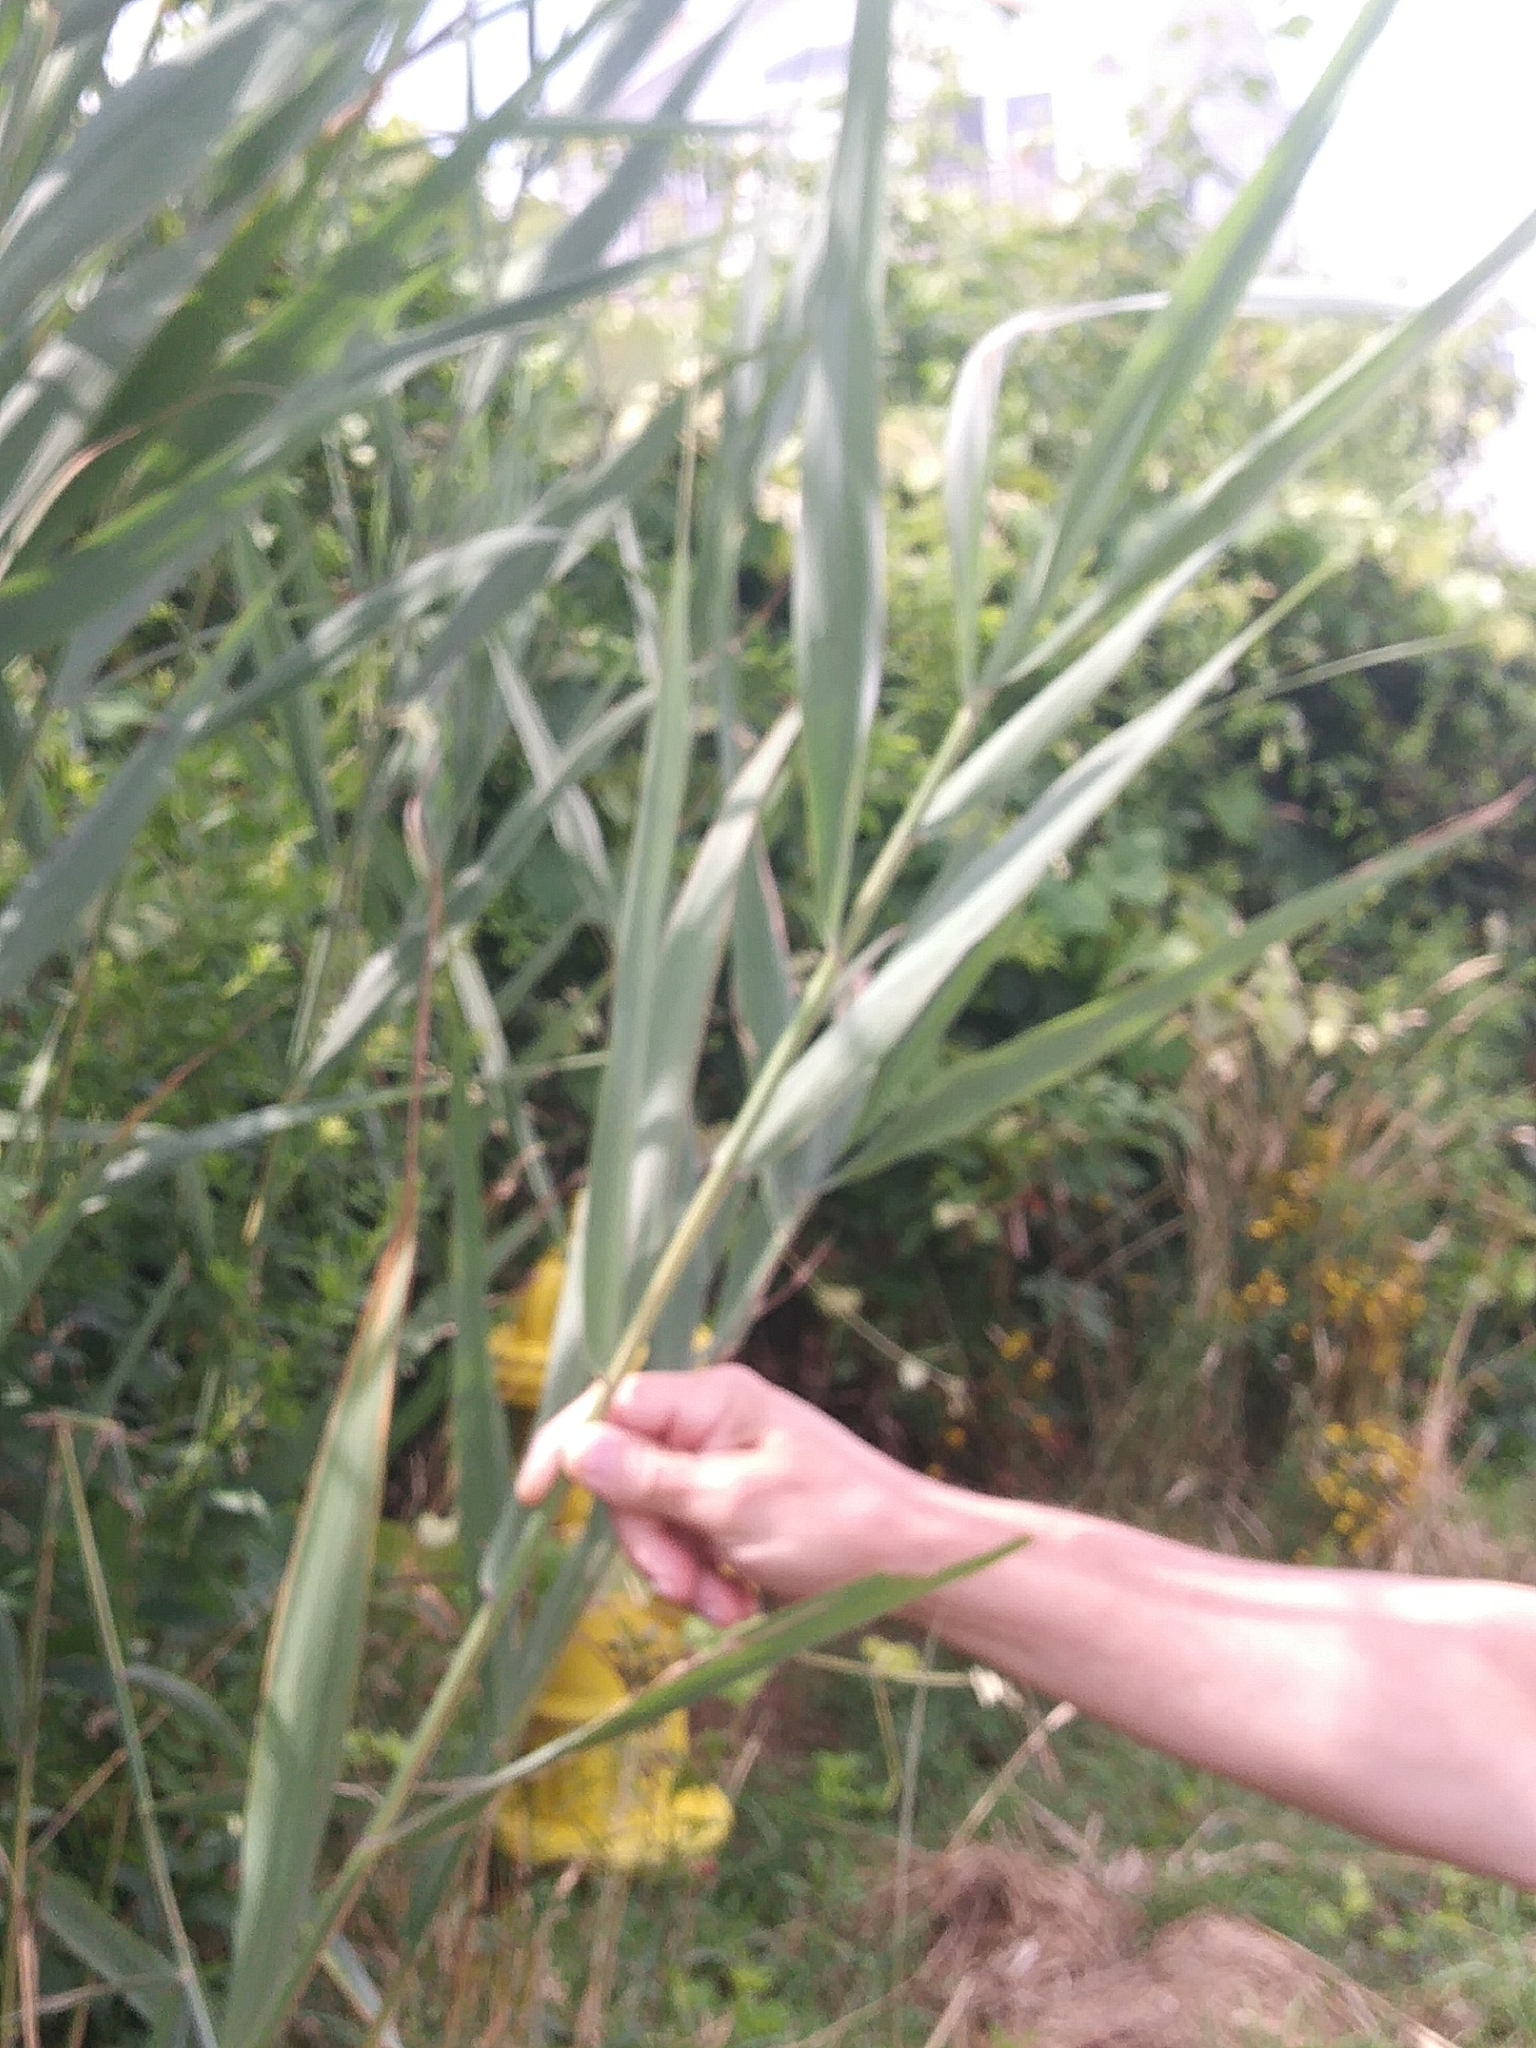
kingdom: Plantae
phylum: Tracheophyta
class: Liliopsida
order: Poales
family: Poaceae
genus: Phragmites
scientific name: Phragmites australis
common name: Common reed
